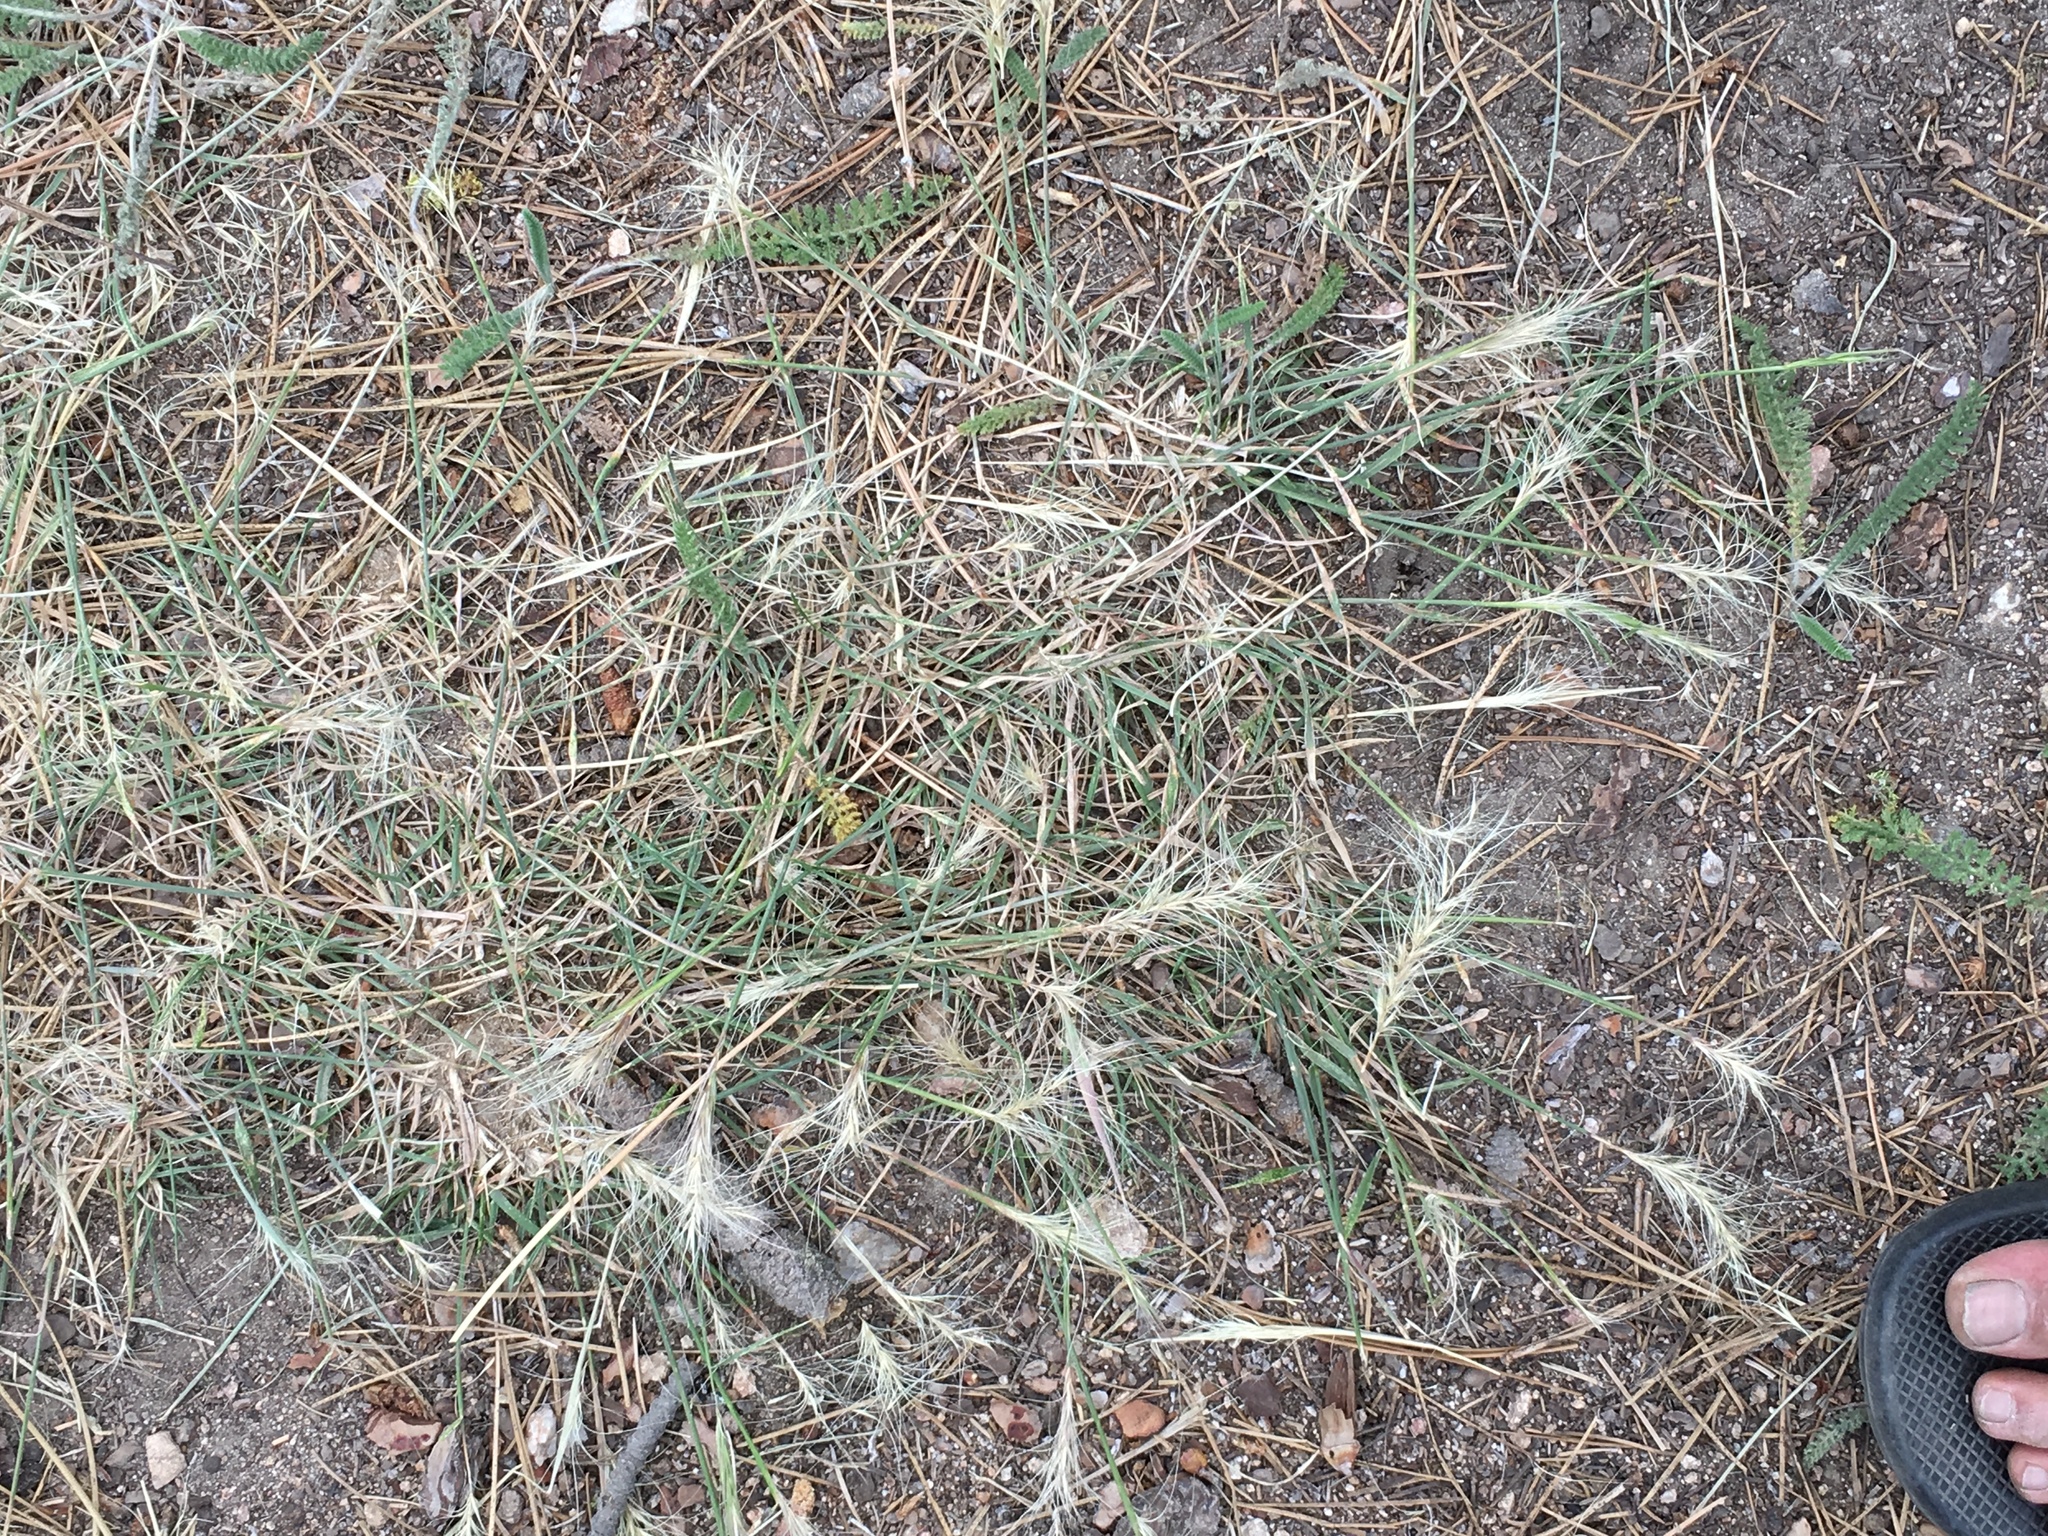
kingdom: Plantae
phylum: Tracheophyta
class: Liliopsida
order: Poales
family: Poaceae
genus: Elymus
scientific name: Elymus elymoides
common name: Bottlebrush squirreltail
